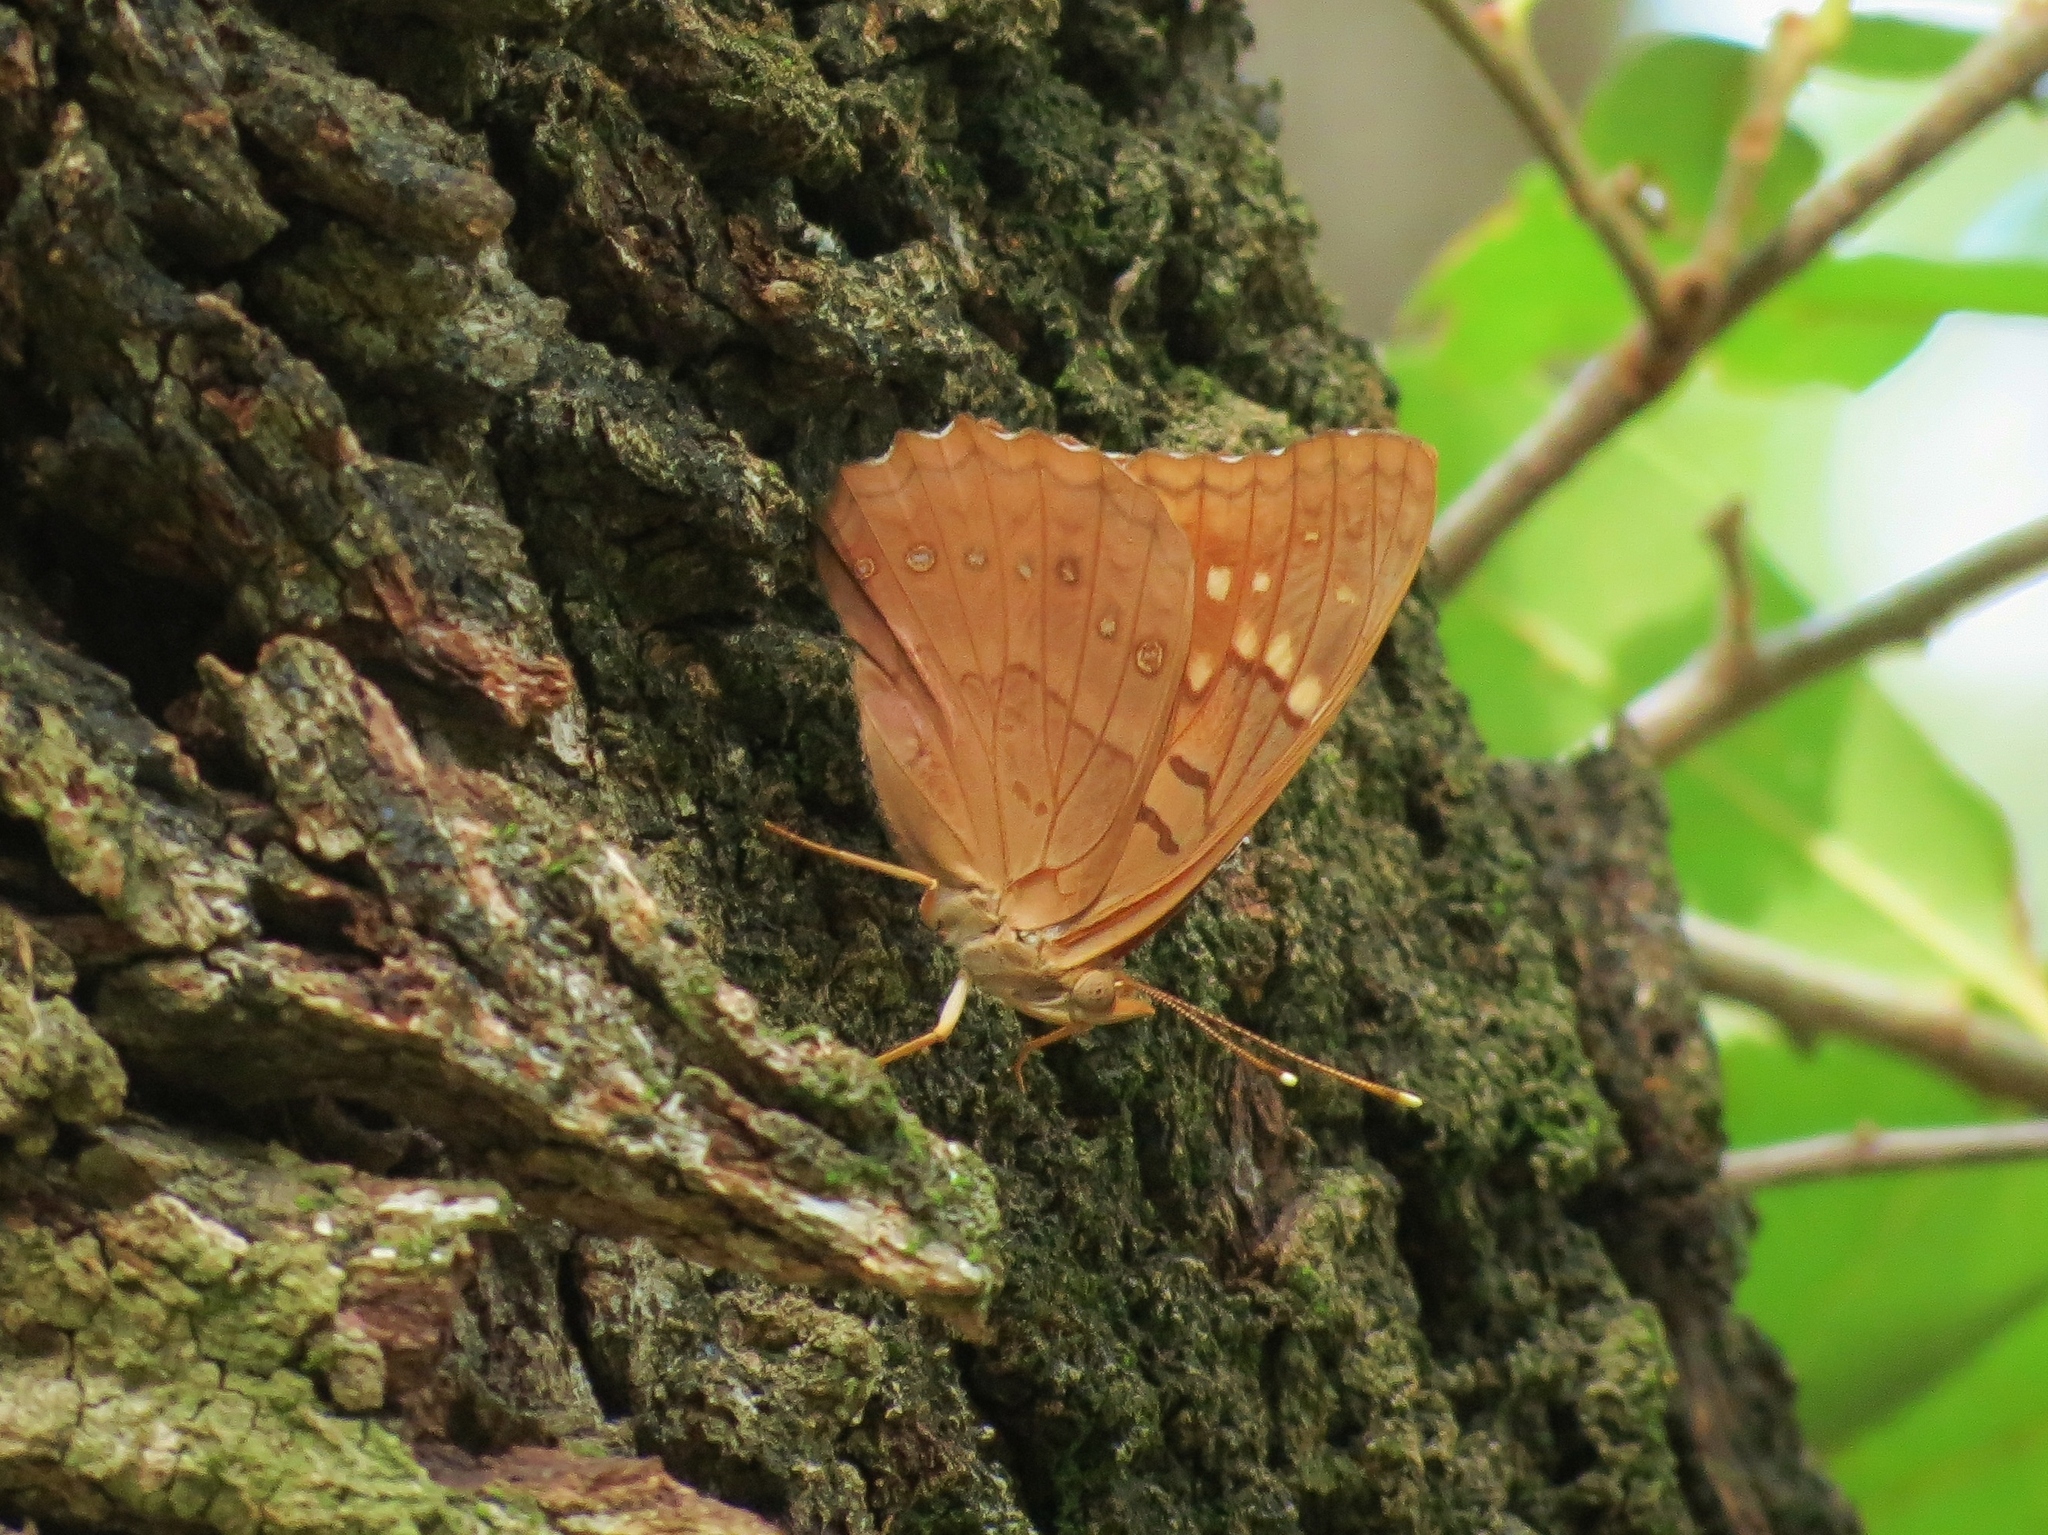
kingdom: Animalia
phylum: Arthropoda
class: Insecta
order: Lepidoptera
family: Nymphalidae
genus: Asterocampa
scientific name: Asterocampa clyton
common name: Tawny emperor
